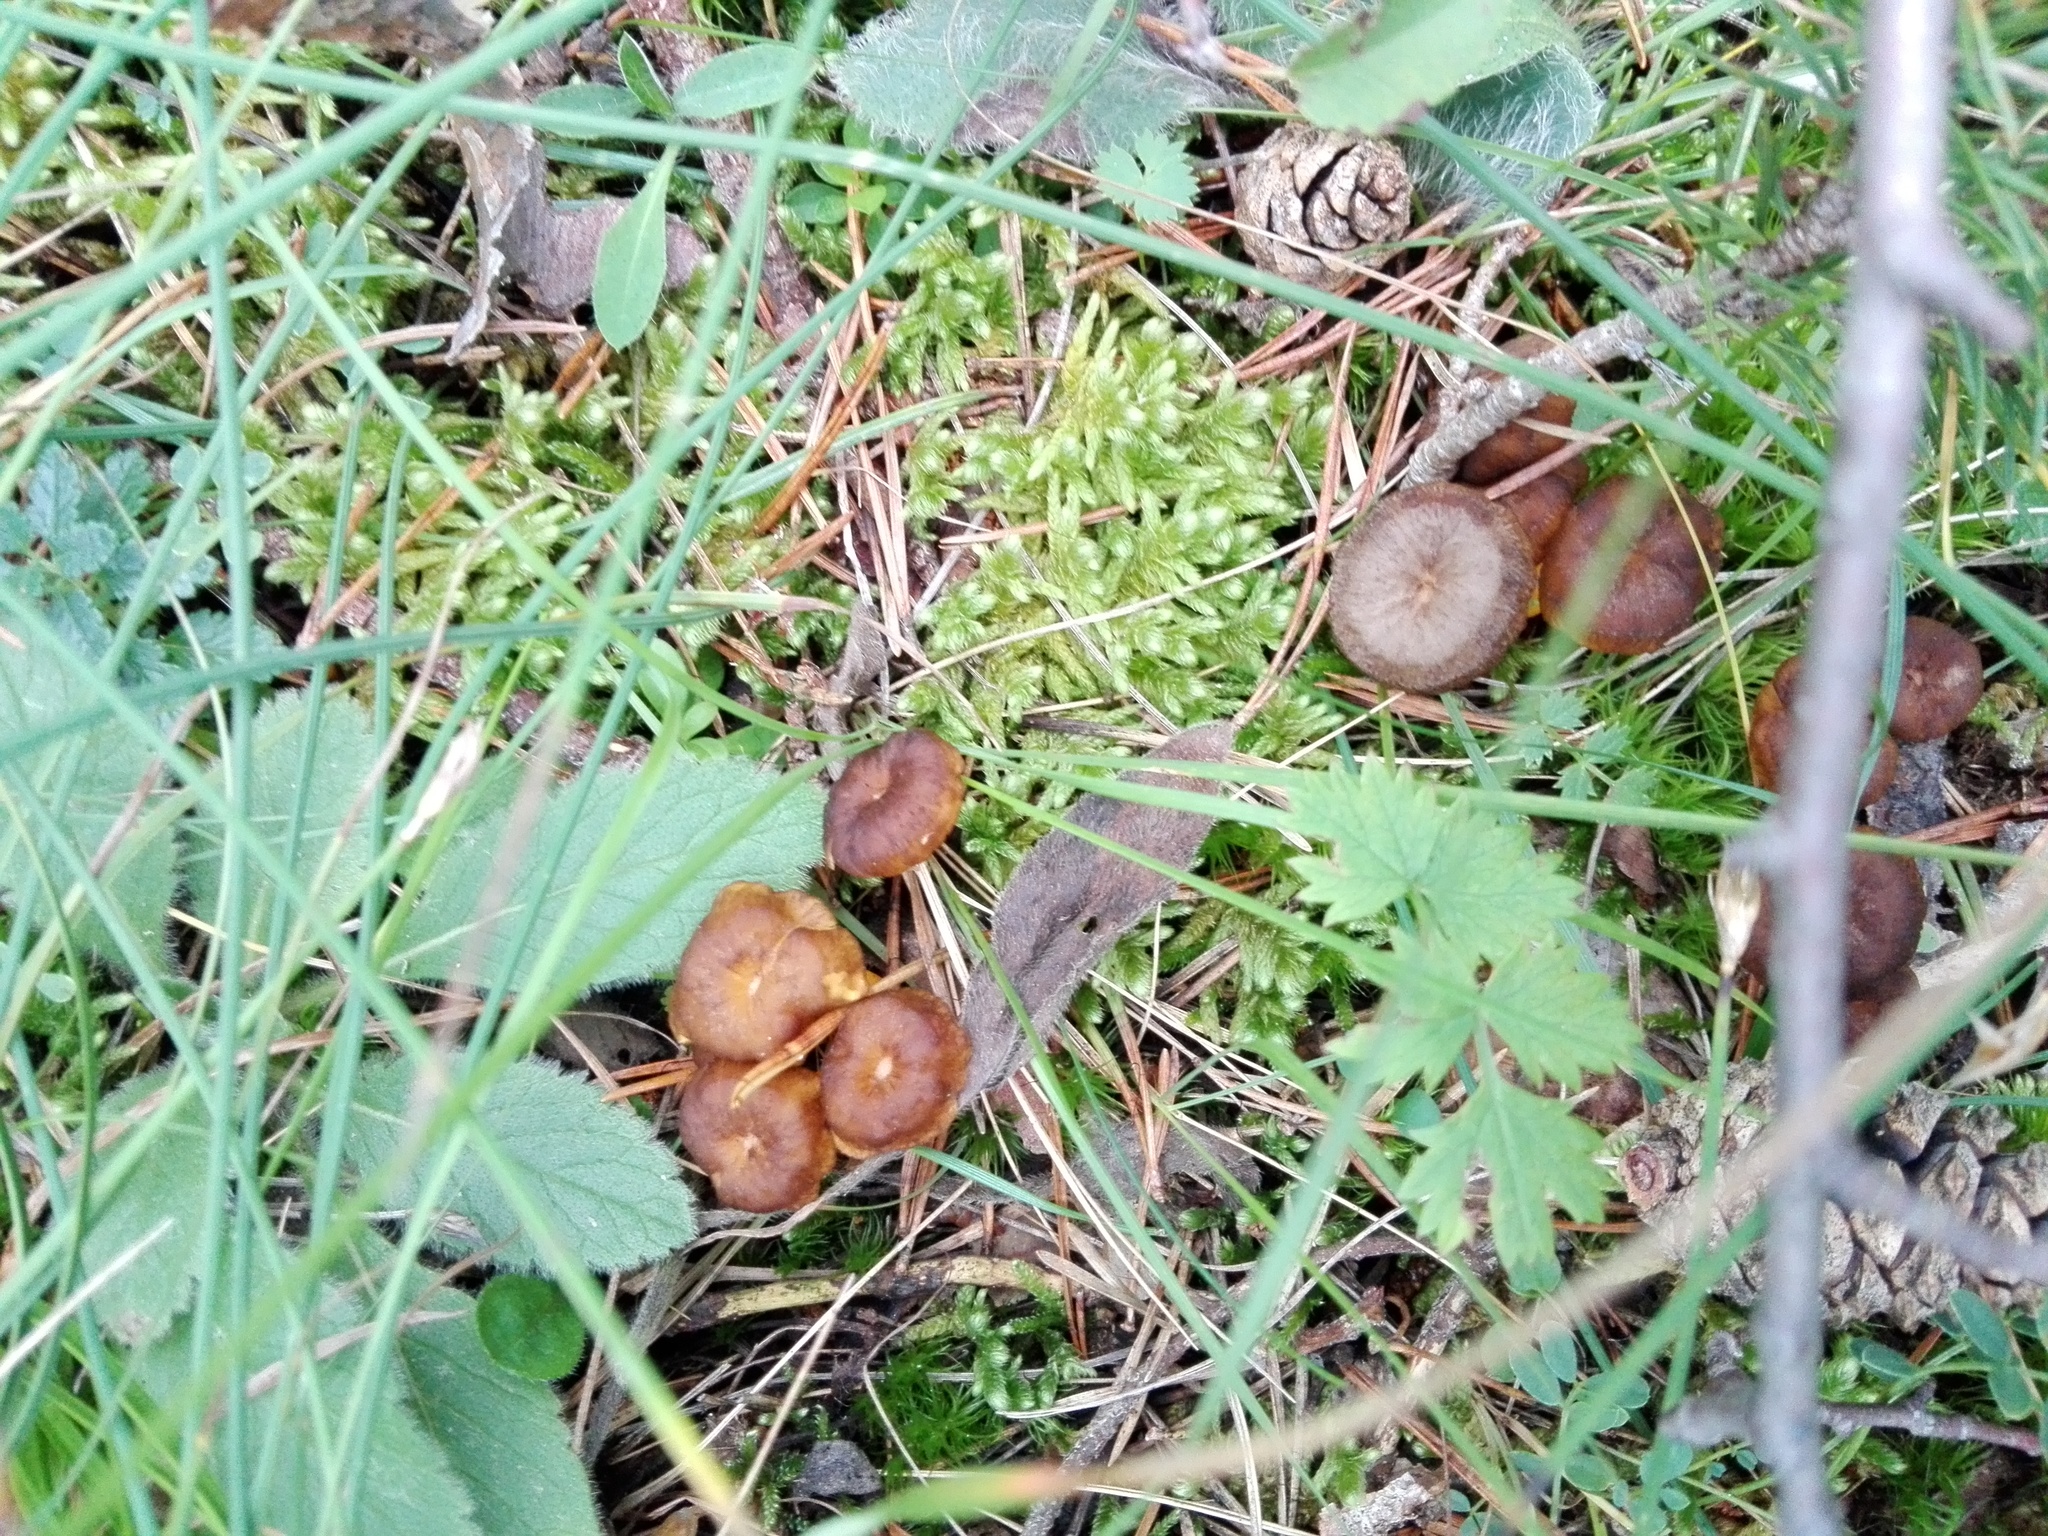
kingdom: Fungi
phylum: Basidiomycota
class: Agaricomycetes
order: Cantharellales
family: Hydnaceae
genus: Craterellus
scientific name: Craterellus lutescens
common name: Golden chanterelle
